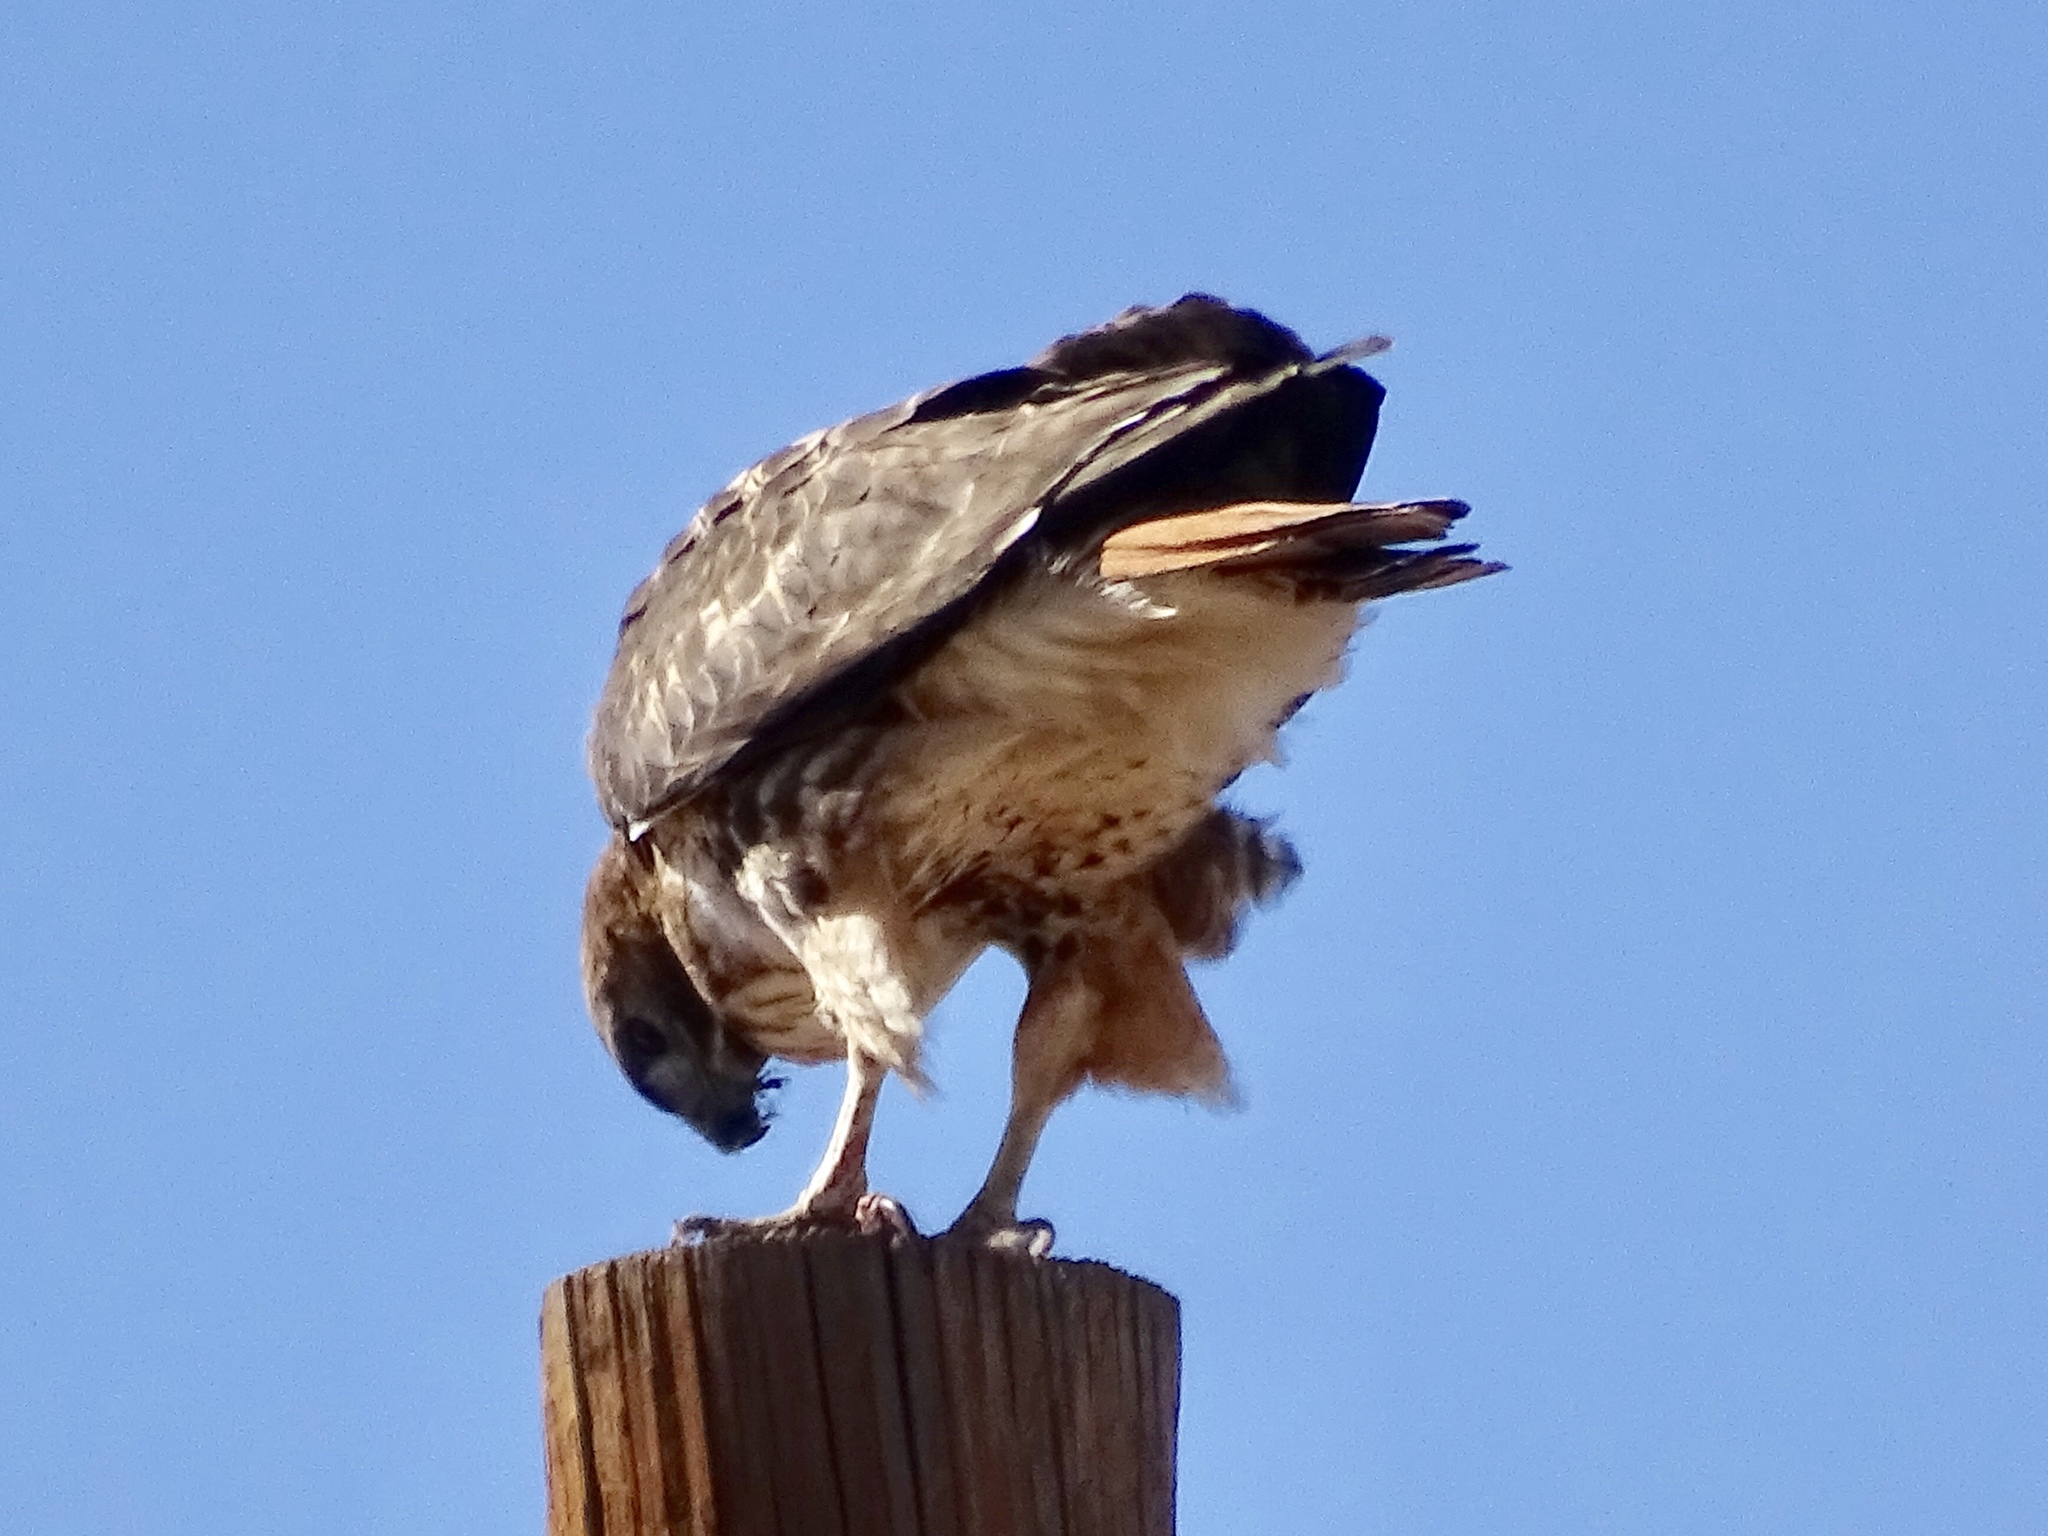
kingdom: Animalia
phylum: Chordata
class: Aves
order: Accipitriformes
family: Accipitridae
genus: Buteo
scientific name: Buteo jamaicensis
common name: Red-tailed hawk
